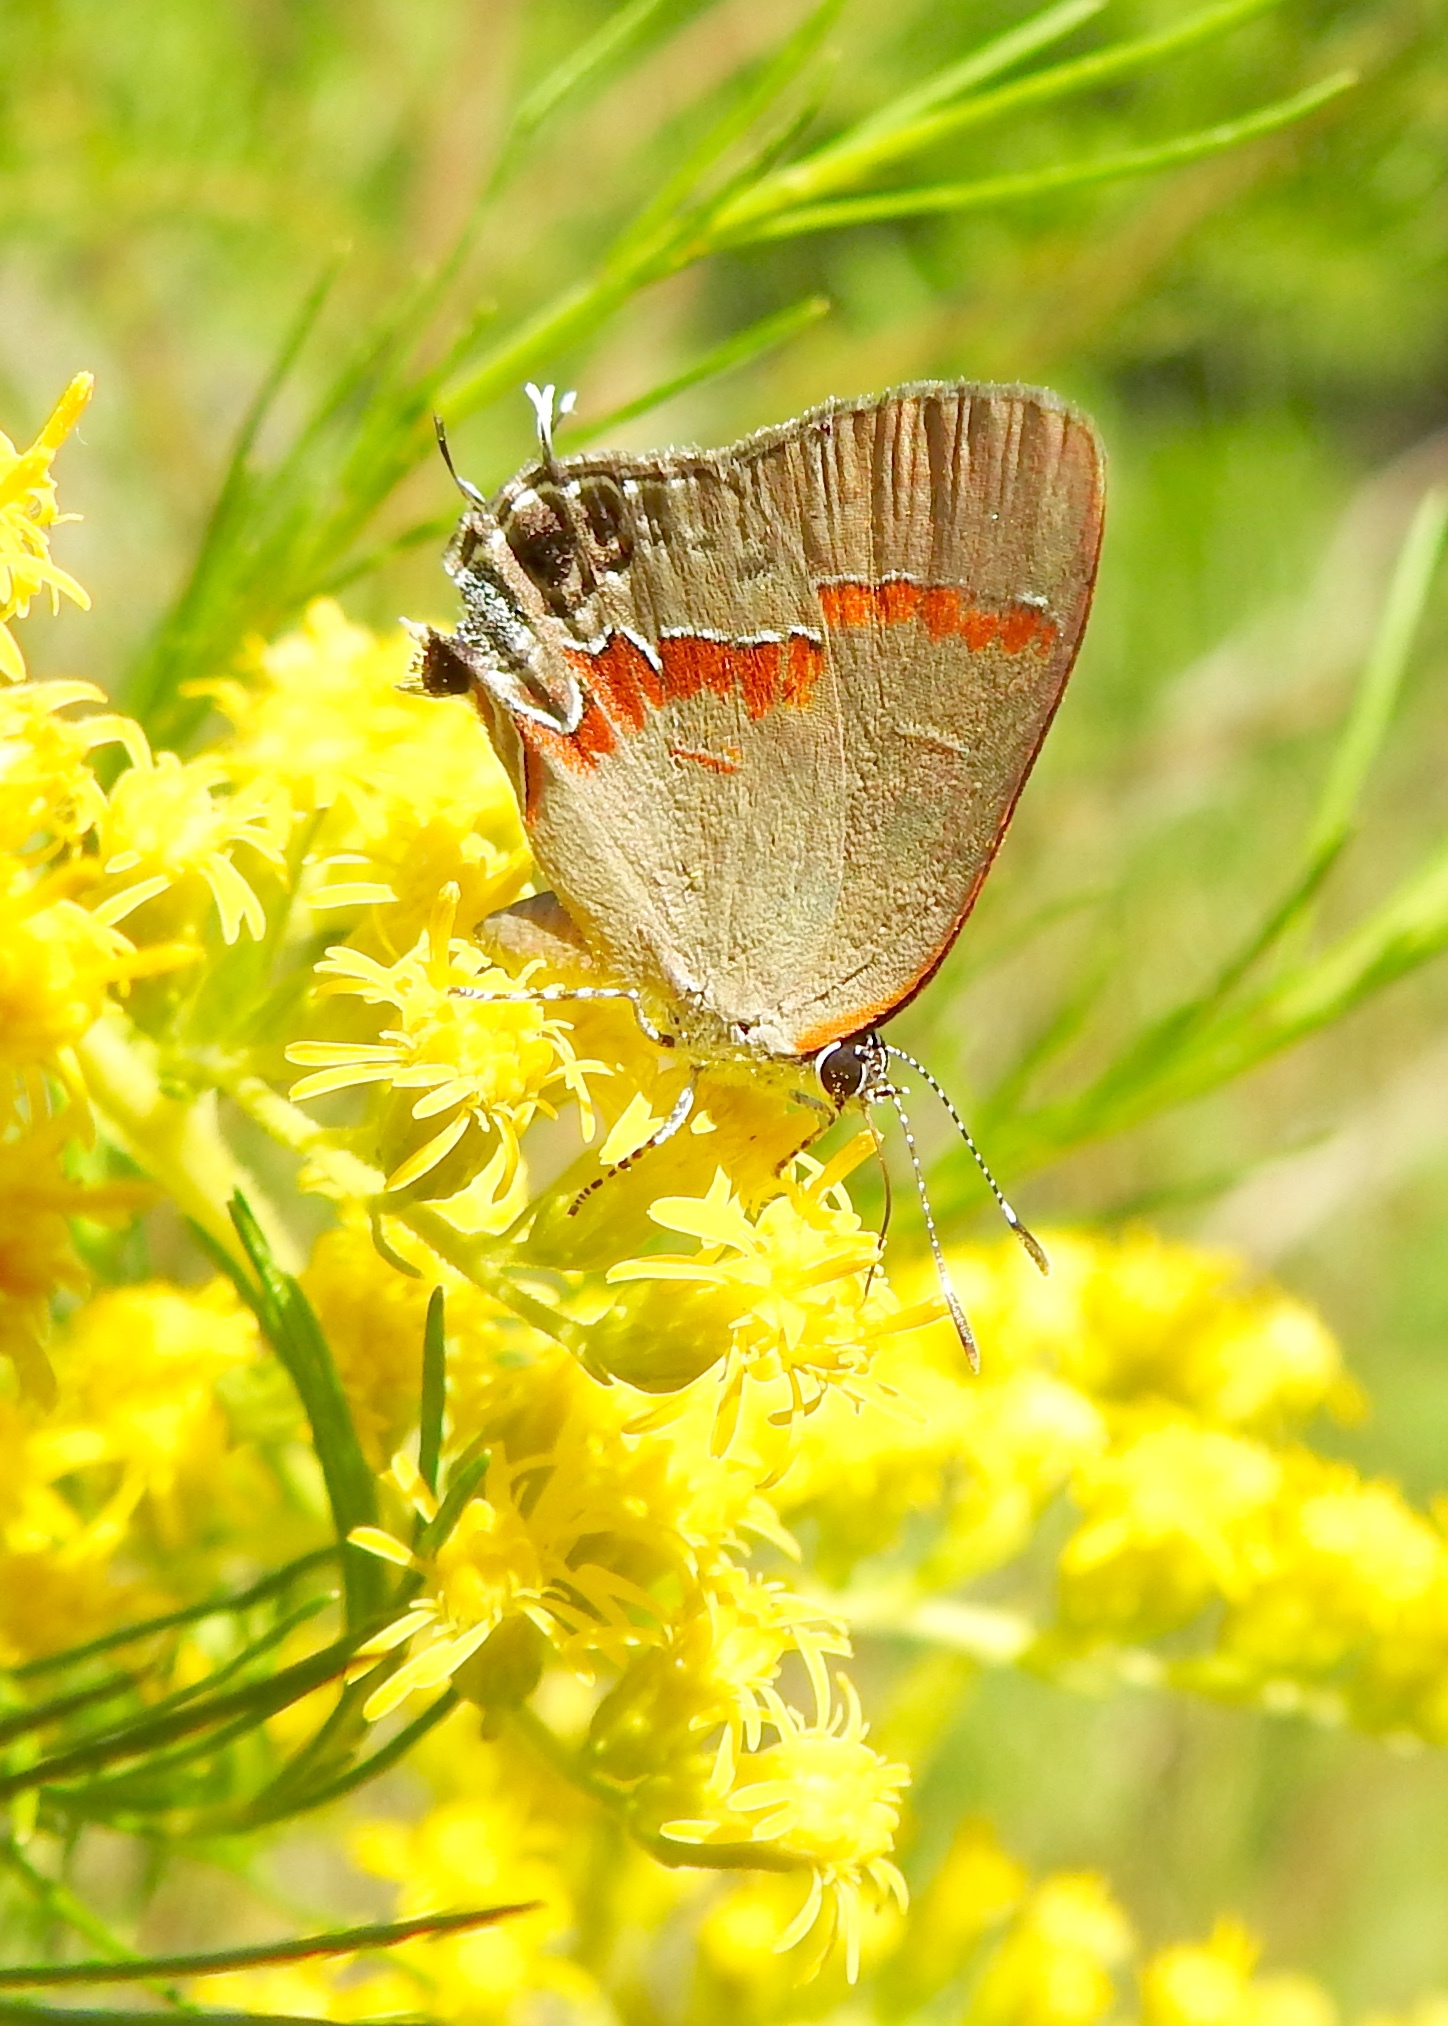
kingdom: Animalia
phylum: Arthropoda
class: Insecta
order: Lepidoptera
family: Lycaenidae
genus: Calycopis
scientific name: Calycopis cecrops
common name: Red-banded hairstreak
